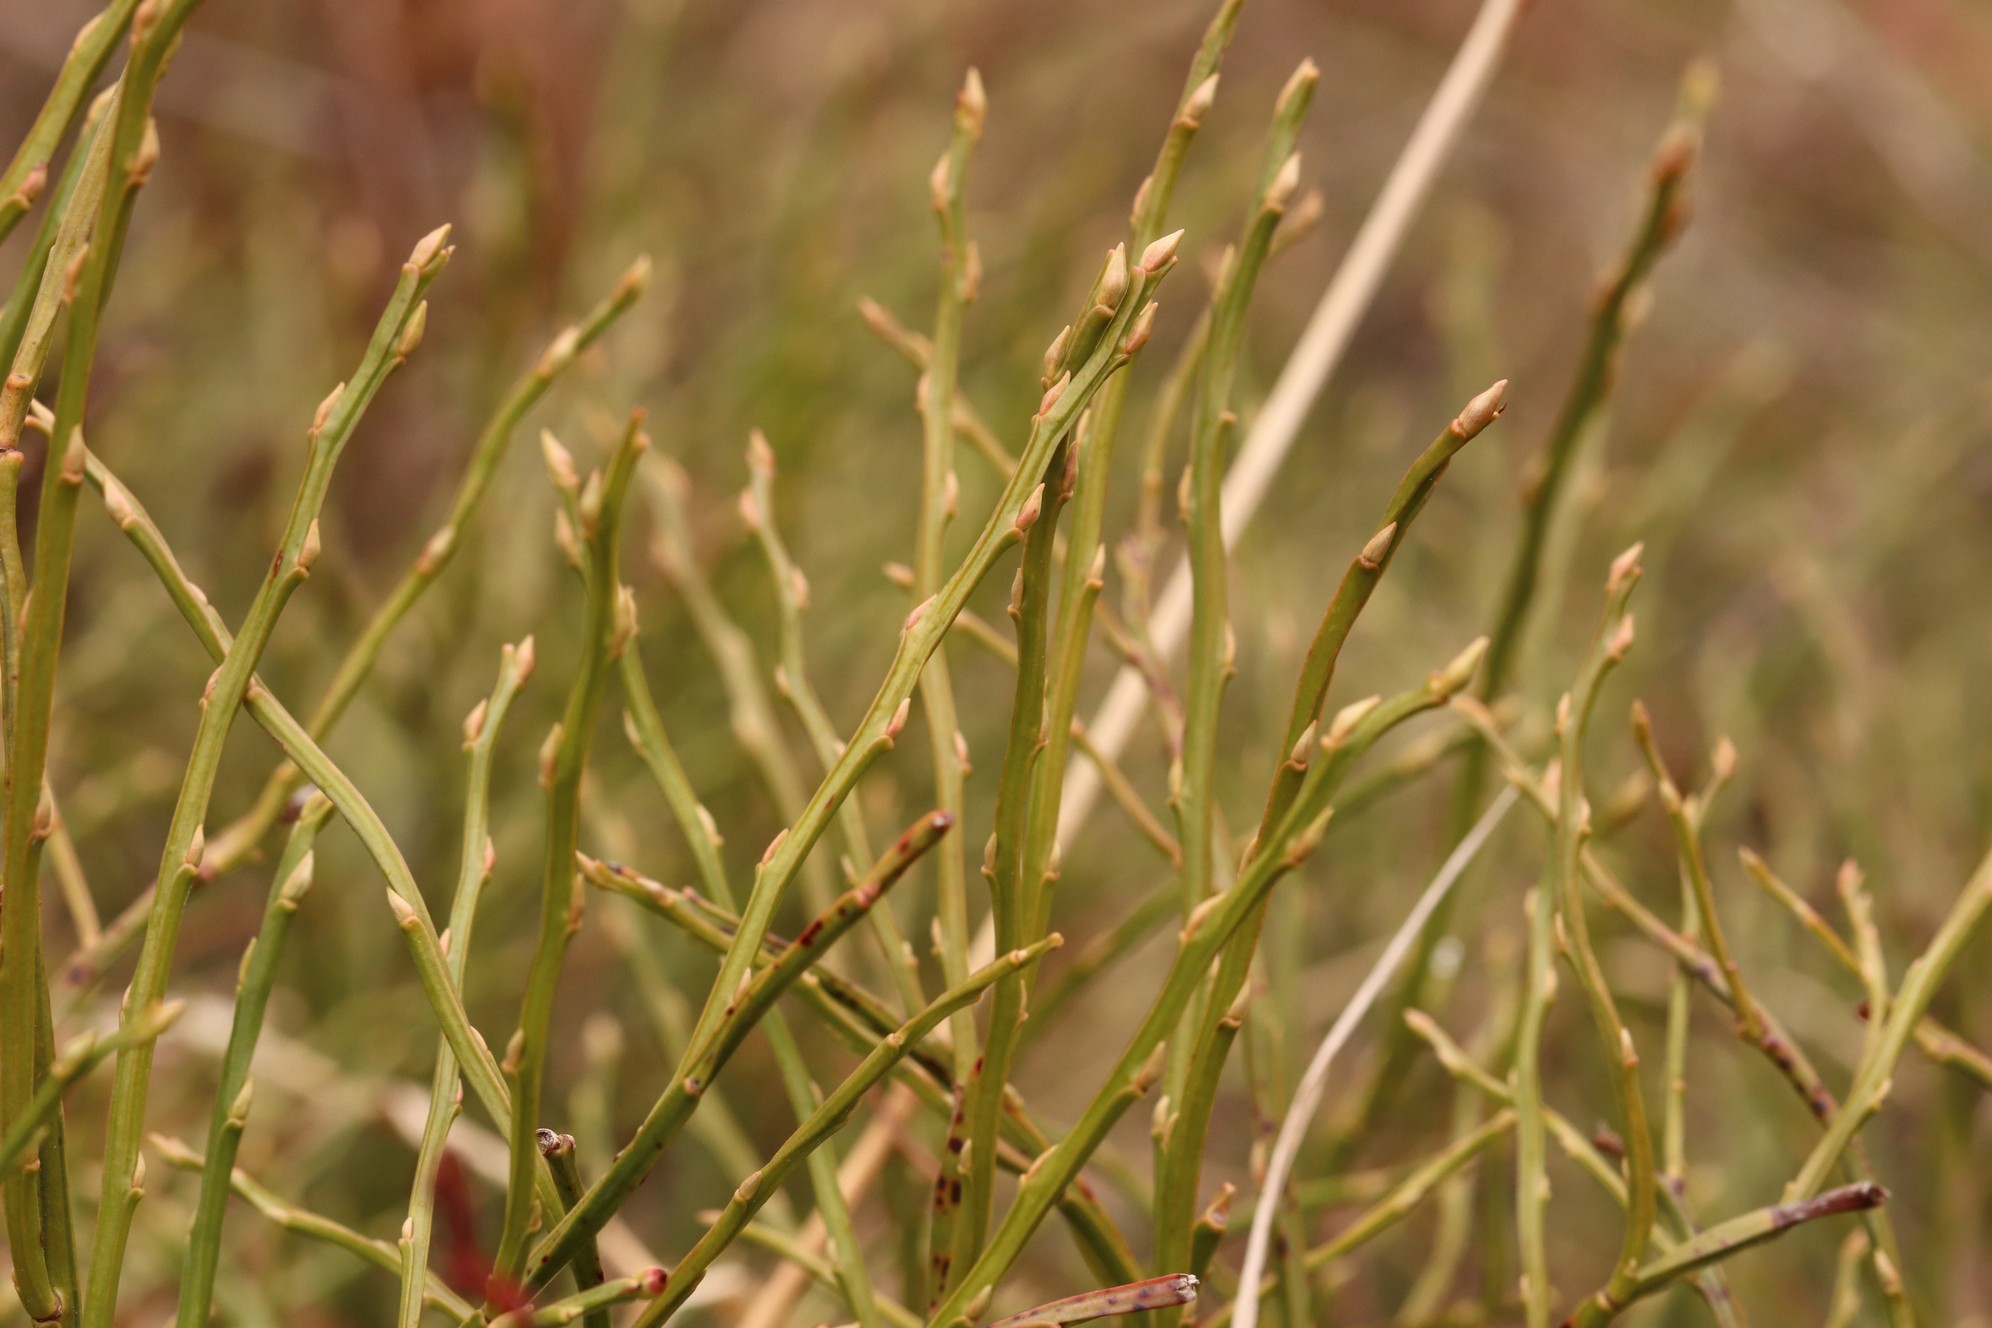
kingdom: Plantae
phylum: Tracheophyta
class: Magnoliopsida
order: Ericales
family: Ericaceae
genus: Vaccinium
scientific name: Vaccinium myrtillus
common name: Bilberry
